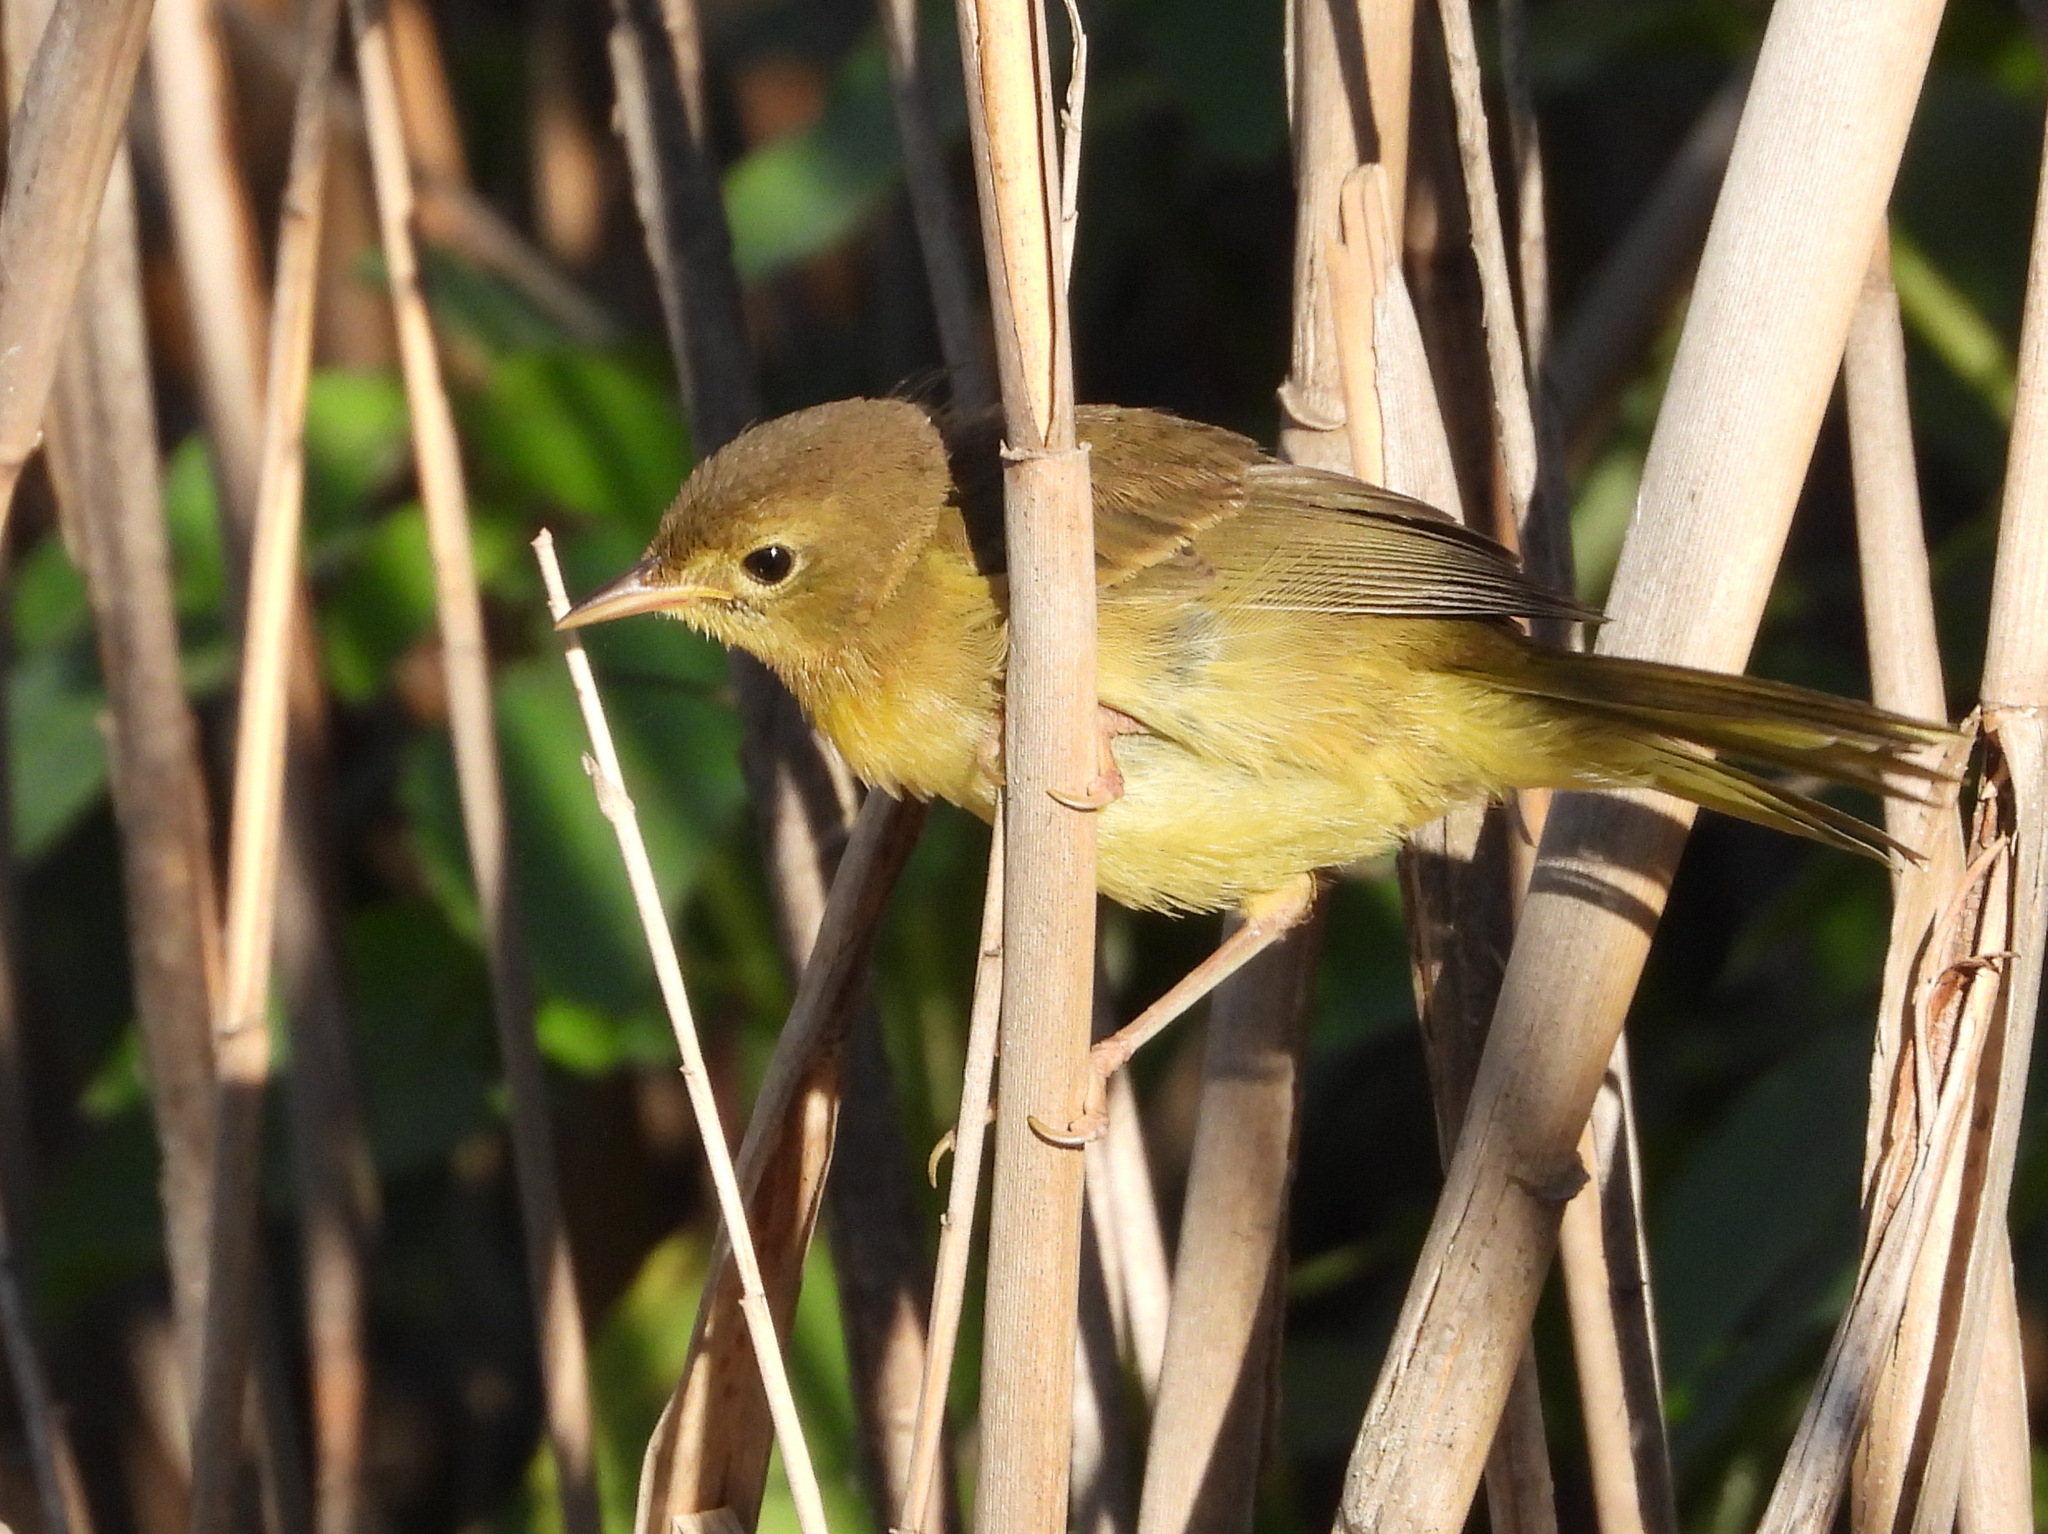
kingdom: Animalia
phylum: Chordata
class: Aves
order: Passeriformes
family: Parulidae
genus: Geothlypis
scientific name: Geothlypis trichas
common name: Common yellowthroat
